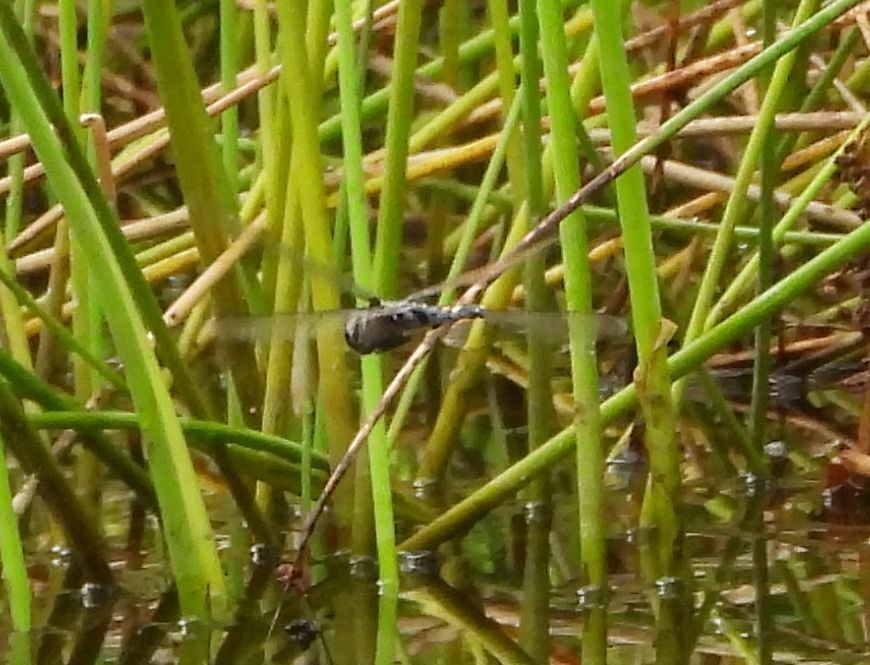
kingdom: Animalia
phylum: Arthropoda
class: Insecta
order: Odonata
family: Libellulidae
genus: Tramea
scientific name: Tramea lacerata
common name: Black saddlebags
